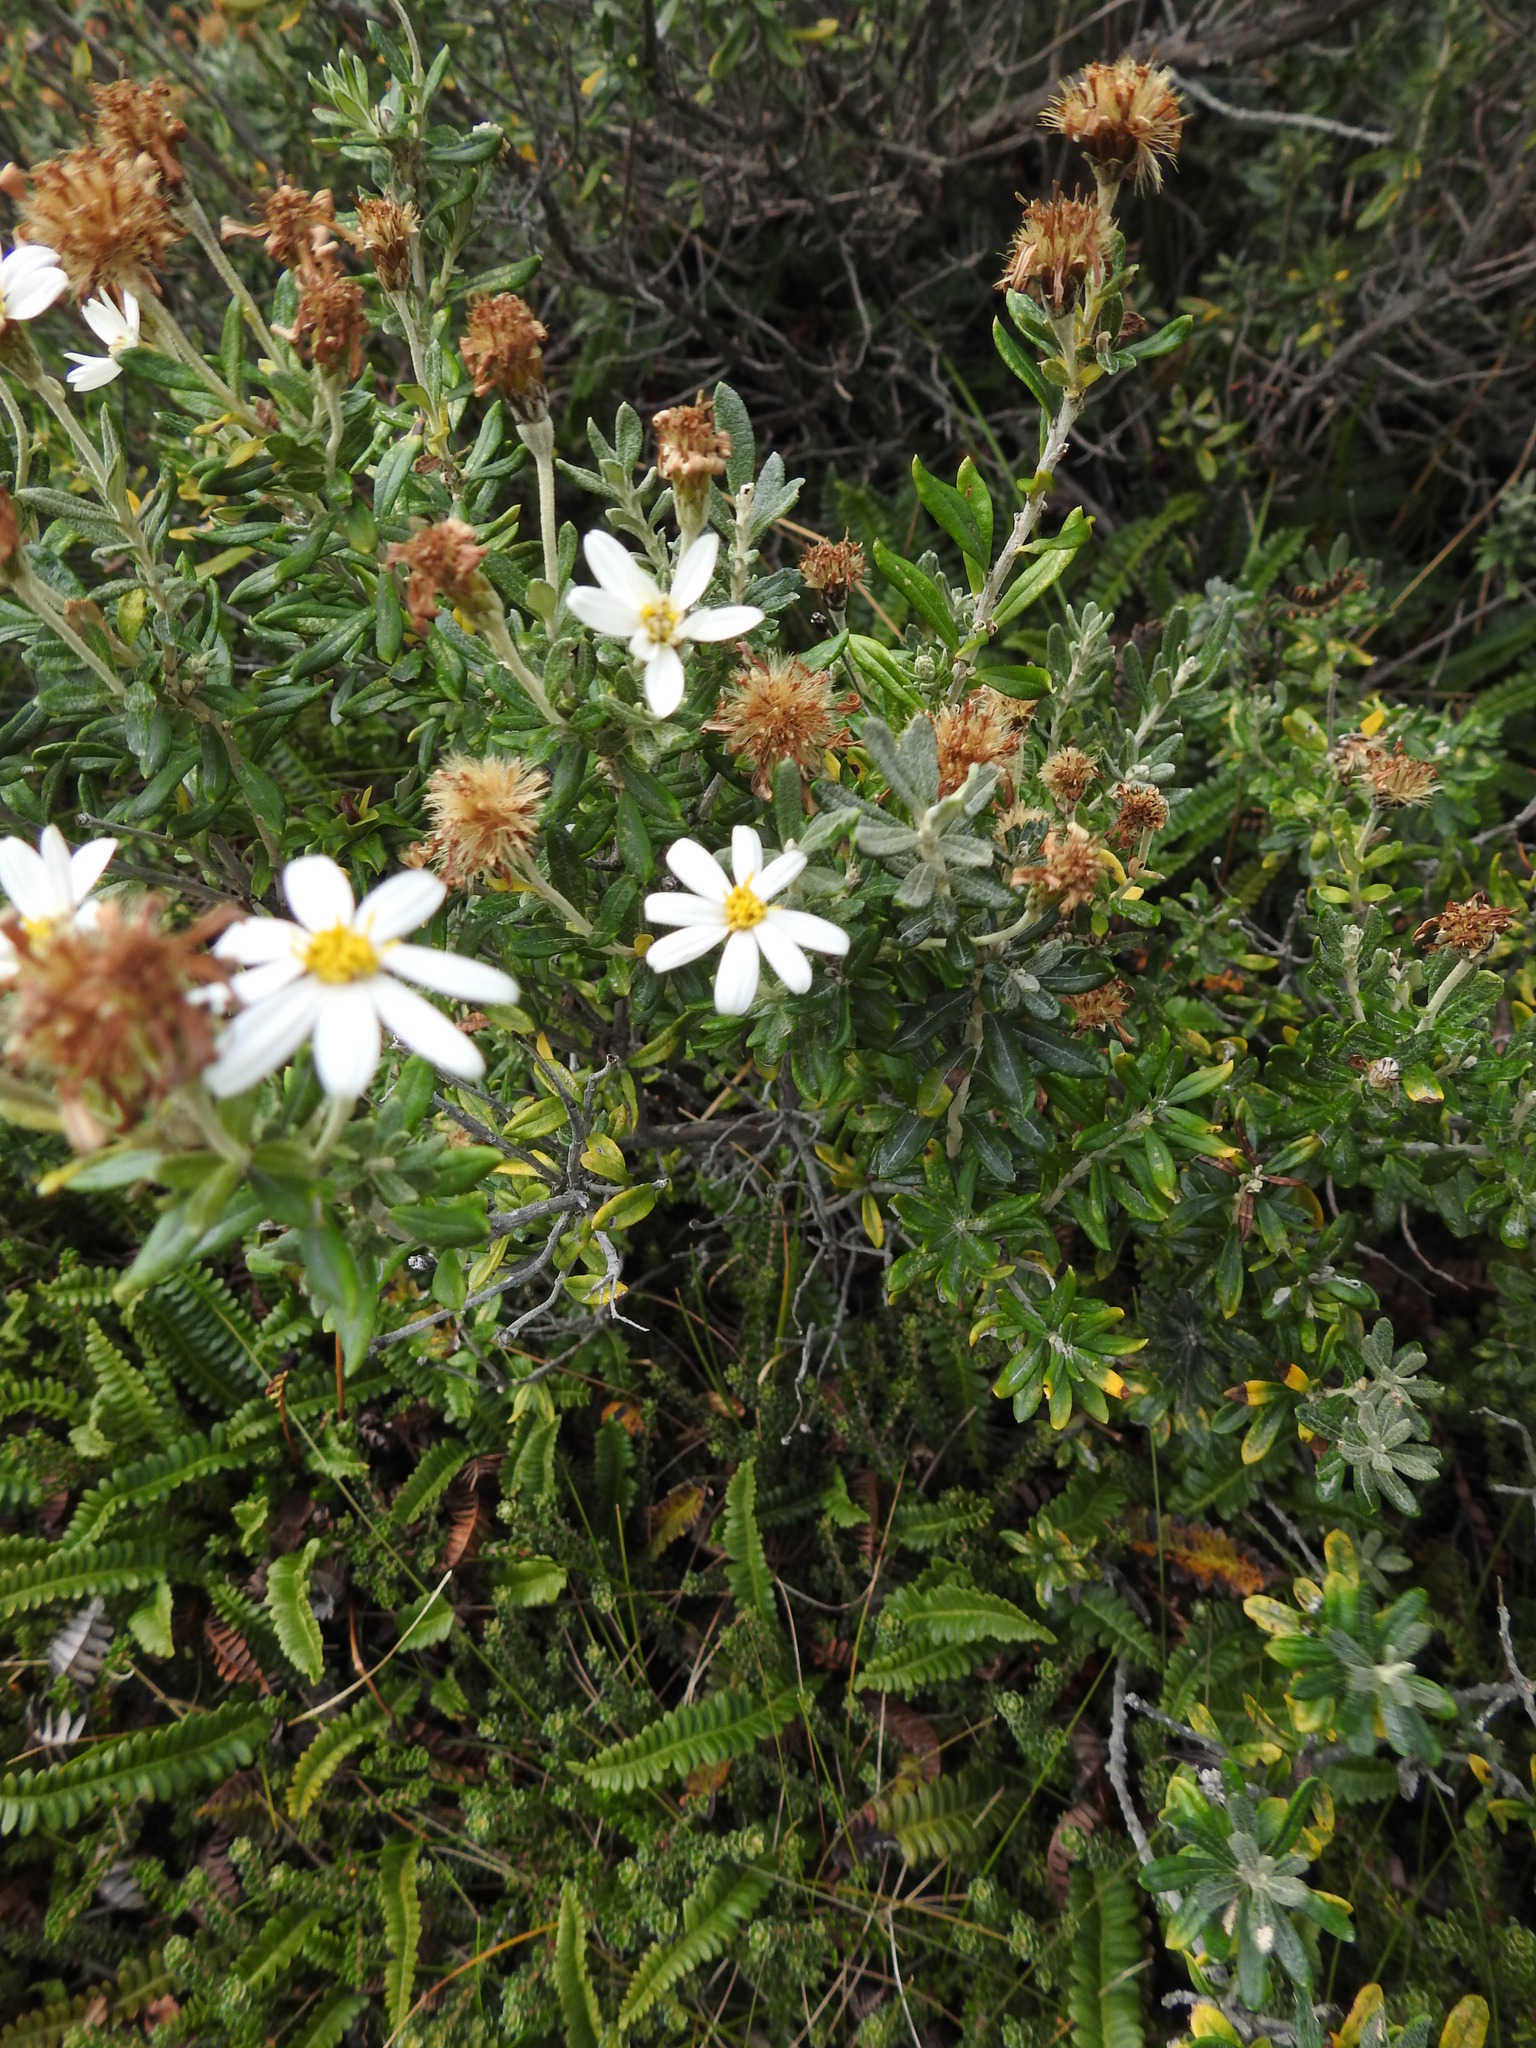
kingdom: Plantae
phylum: Tracheophyta
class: Magnoliopsida
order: Asterales
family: Asteraceae
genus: Chiliotrichum
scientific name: Chiliotrichum diffusum
